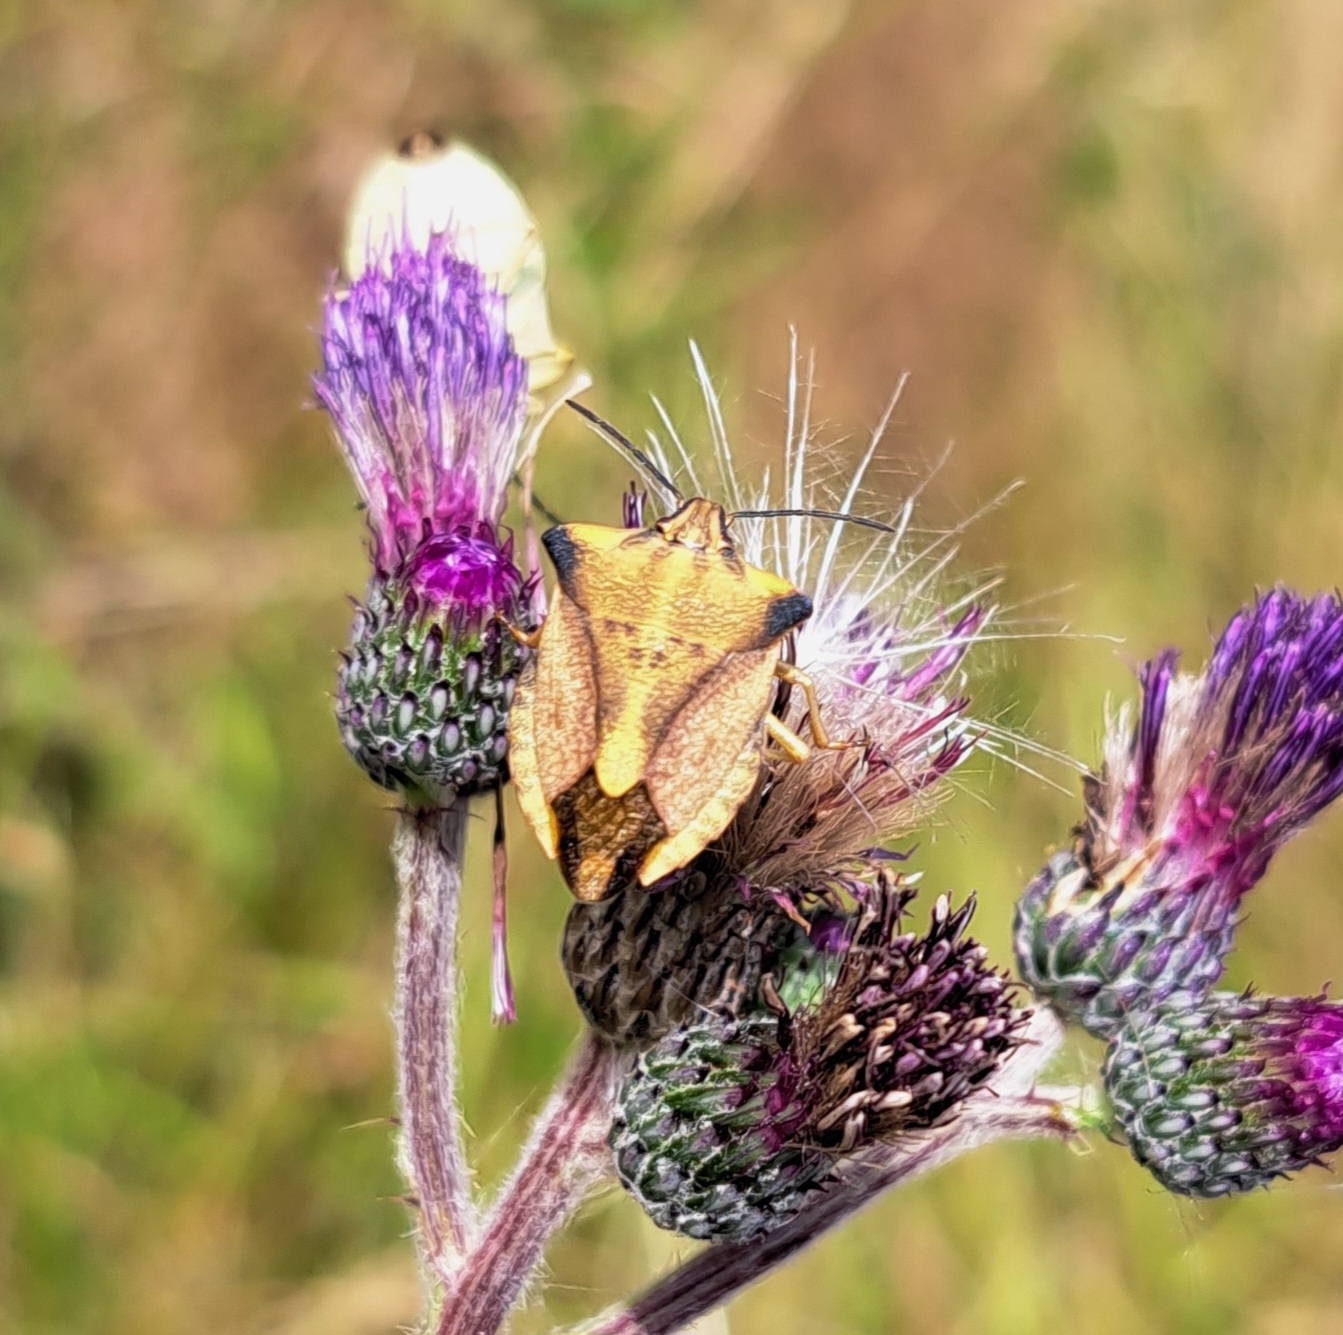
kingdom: Animalia
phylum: Arthropoda
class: Insecta
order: Hemiptera
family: Pentatomidae
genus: Carpocoris
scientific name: Carpocoris fuscispinus
